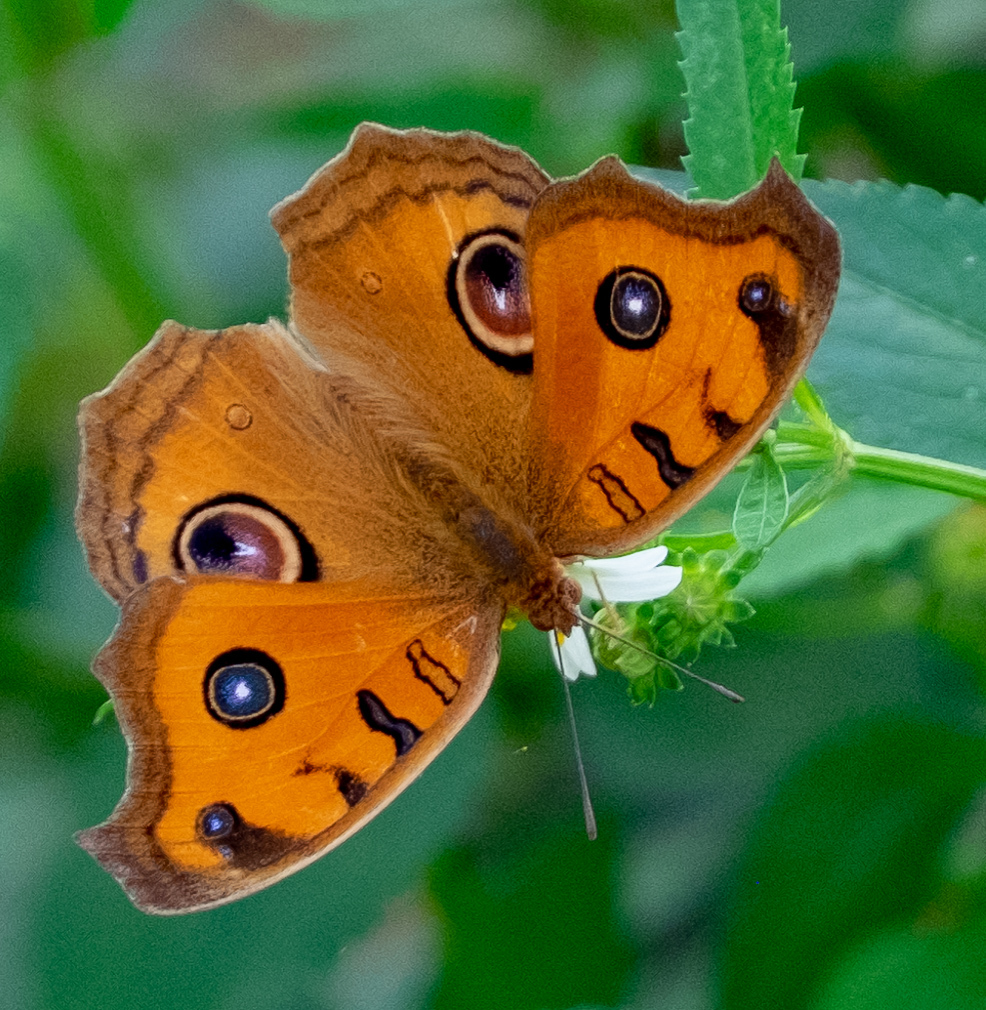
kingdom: Animalia
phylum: Arthropoda
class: Insecta
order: Lepidoptera
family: Nymphalidae
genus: Junonia
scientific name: Junonia almana
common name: Peacock pansy
